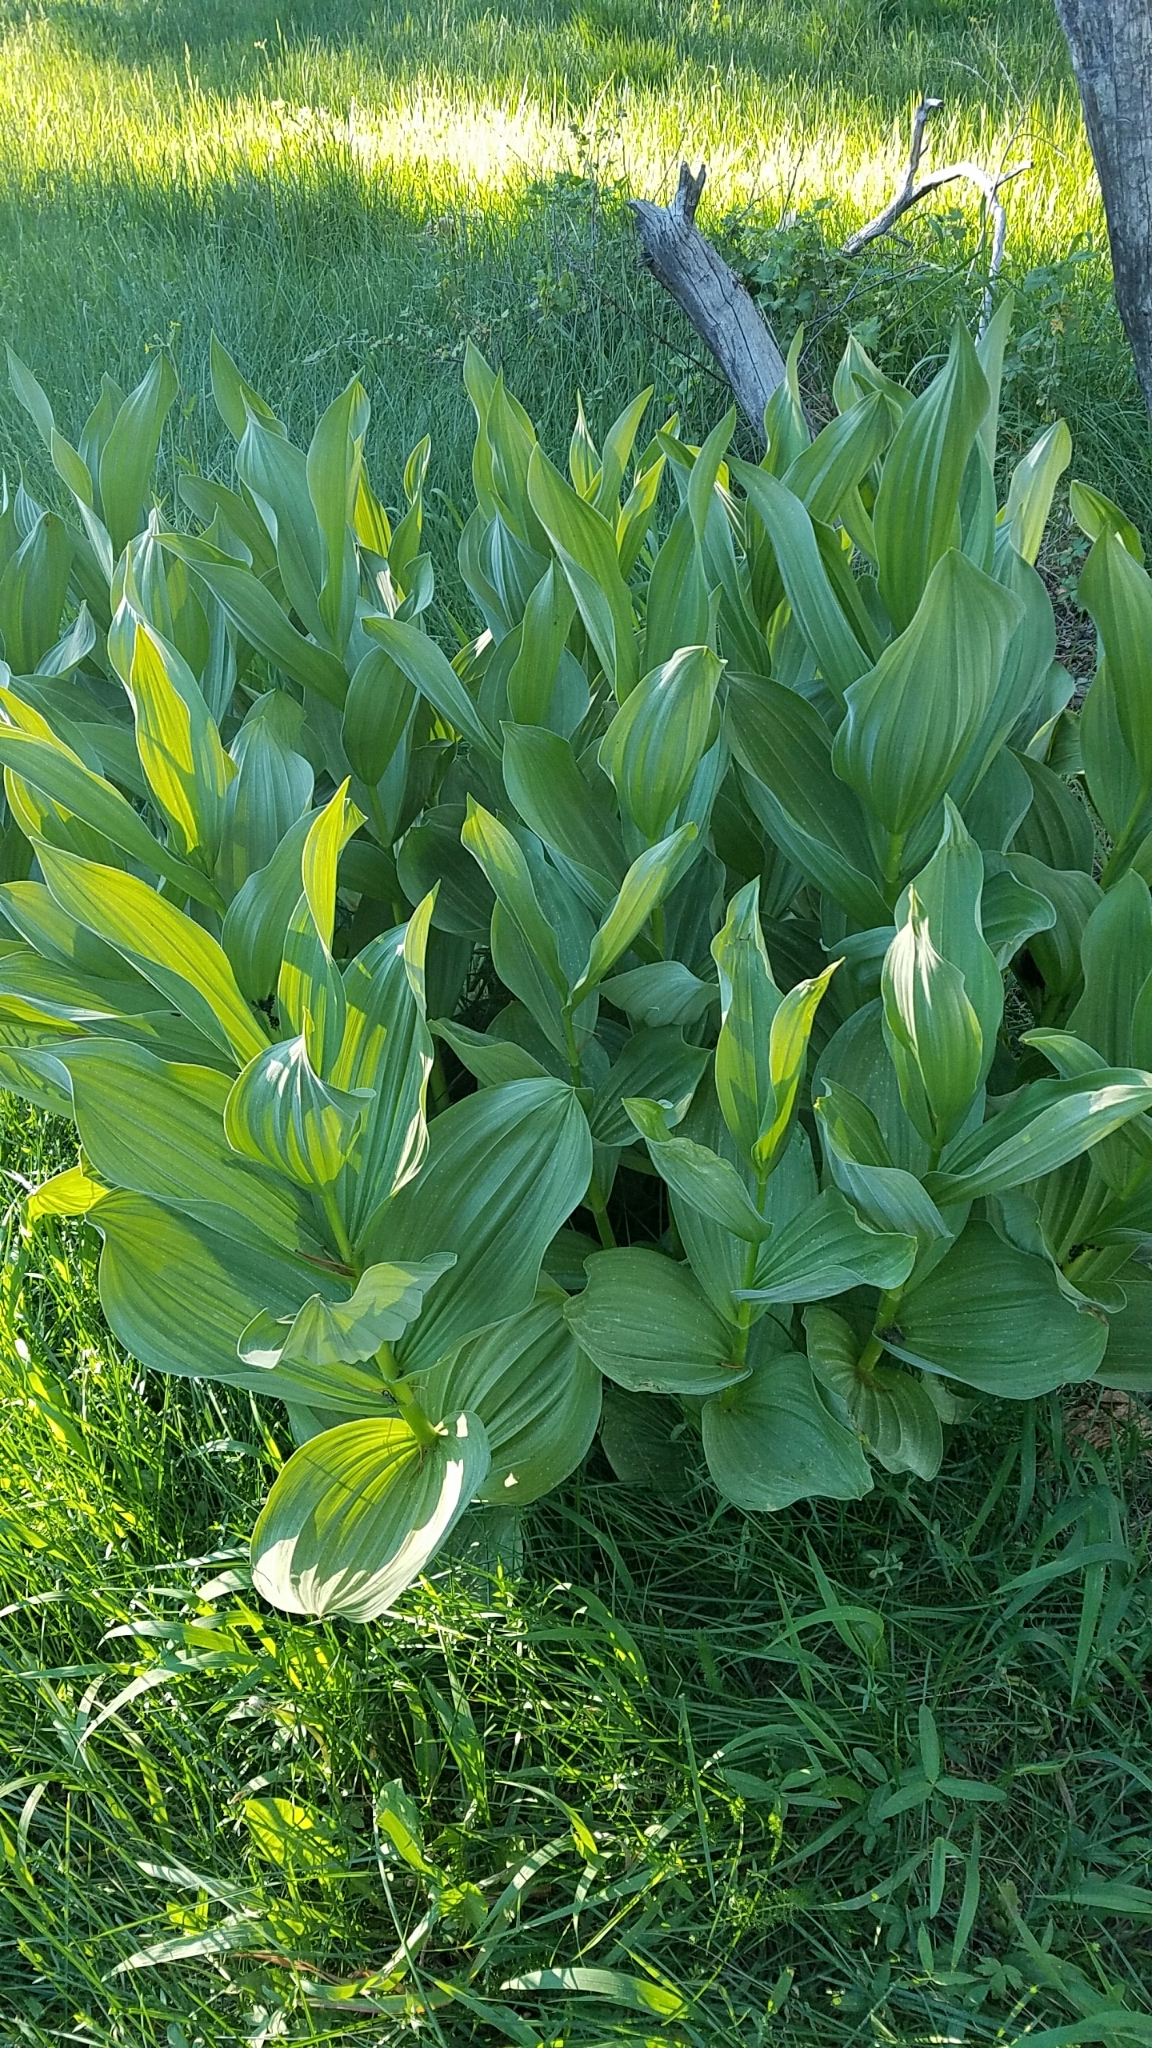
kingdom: Plantae
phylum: Tracheophyta
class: Liliopsida
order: Liliales
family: Melanthiaceae
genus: Veratrum
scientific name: Veratrum californicum
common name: California veratrum
